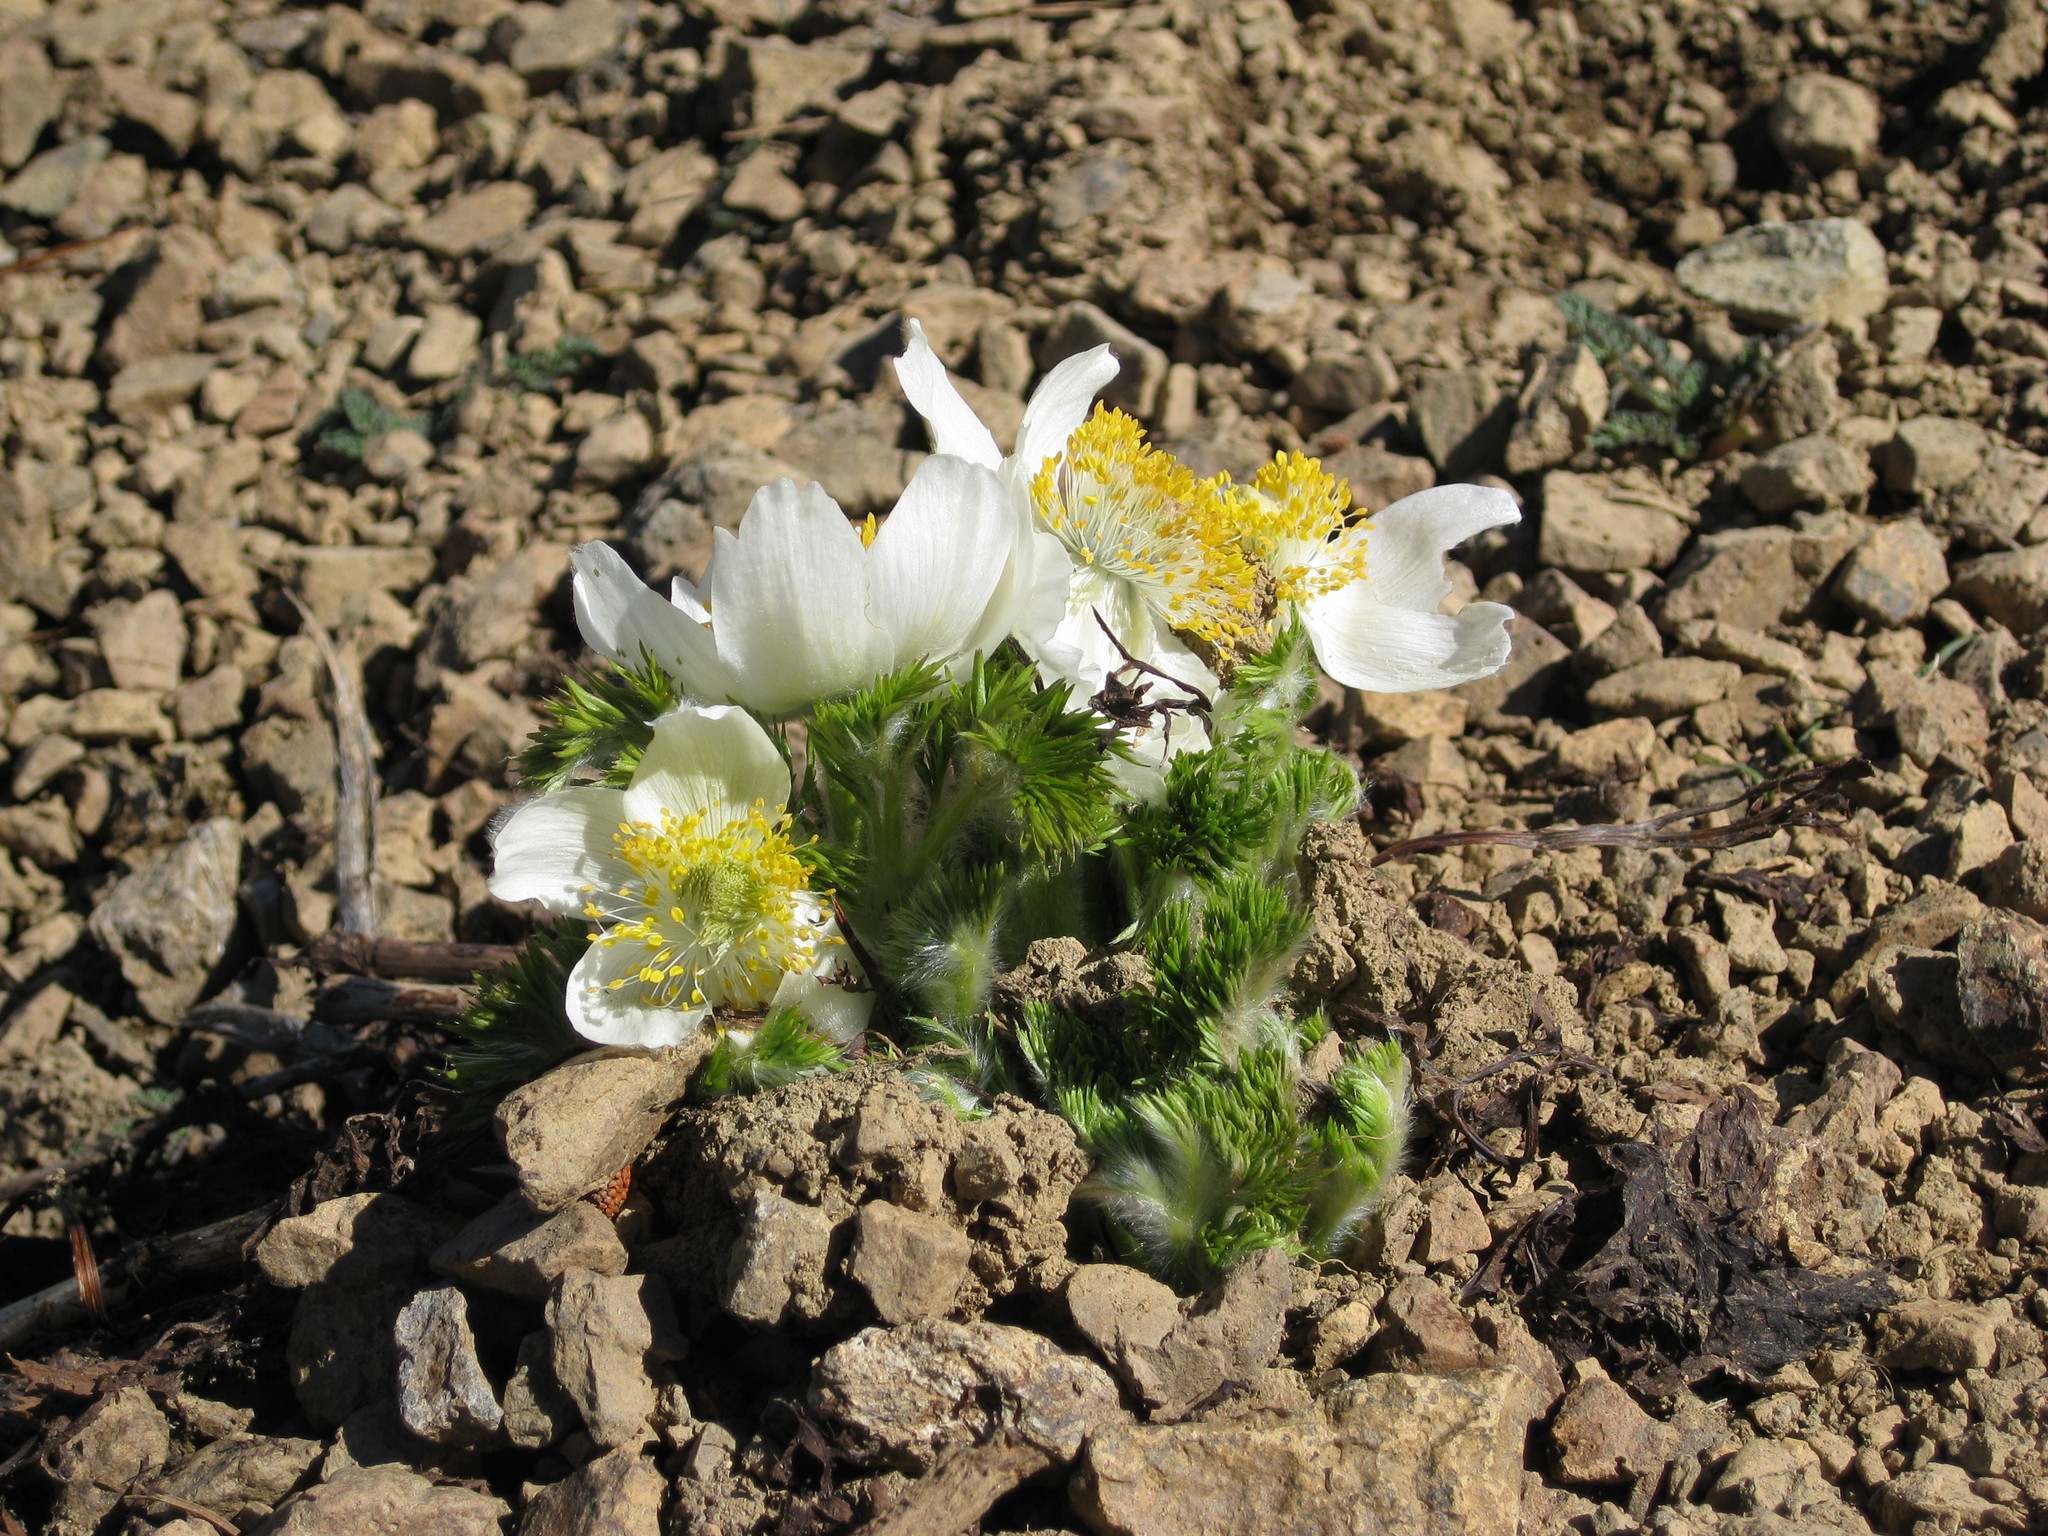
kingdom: Plantae
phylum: Tracheophyta
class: Magnoliopsida
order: Ranunculales
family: Ranunculaceae
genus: Pulsatilla
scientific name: Pulsatilla occidentalis
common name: Mountain pasqueflower
